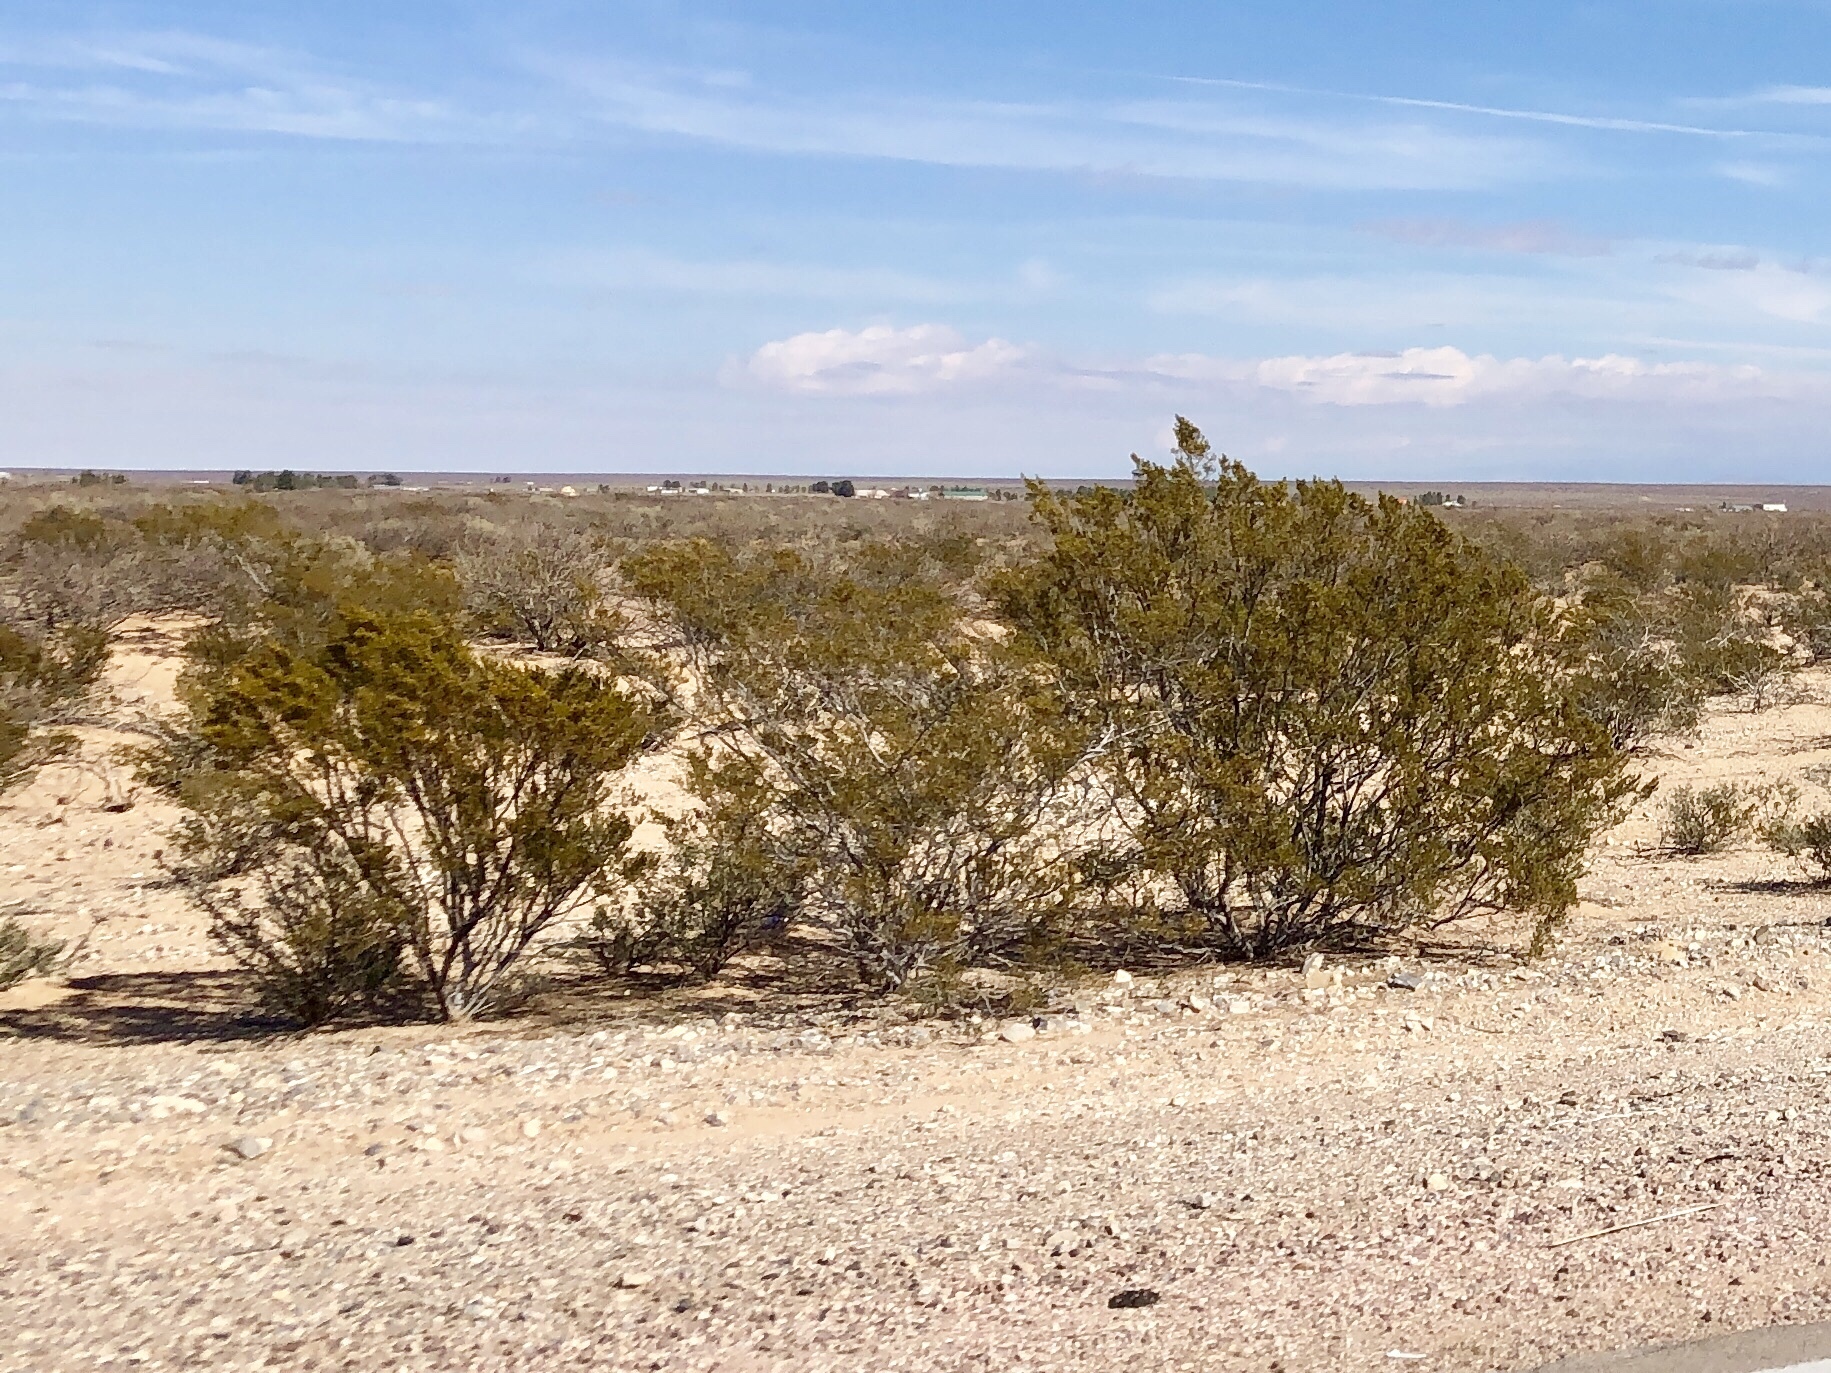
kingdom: Plantae
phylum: Tracheophyta
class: Magnoliopsida
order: Zygophyllales
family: Zygophyllaceae
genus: Larrea
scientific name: Larrea tridentata
